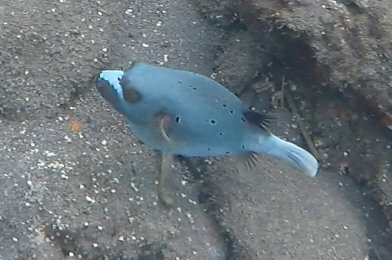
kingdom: Animalia
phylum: Chordata
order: Tetraodontiformes
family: Tetraodontidae
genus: Arothron
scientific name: Arothron nigropunctatus
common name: Black spotted blow fish
